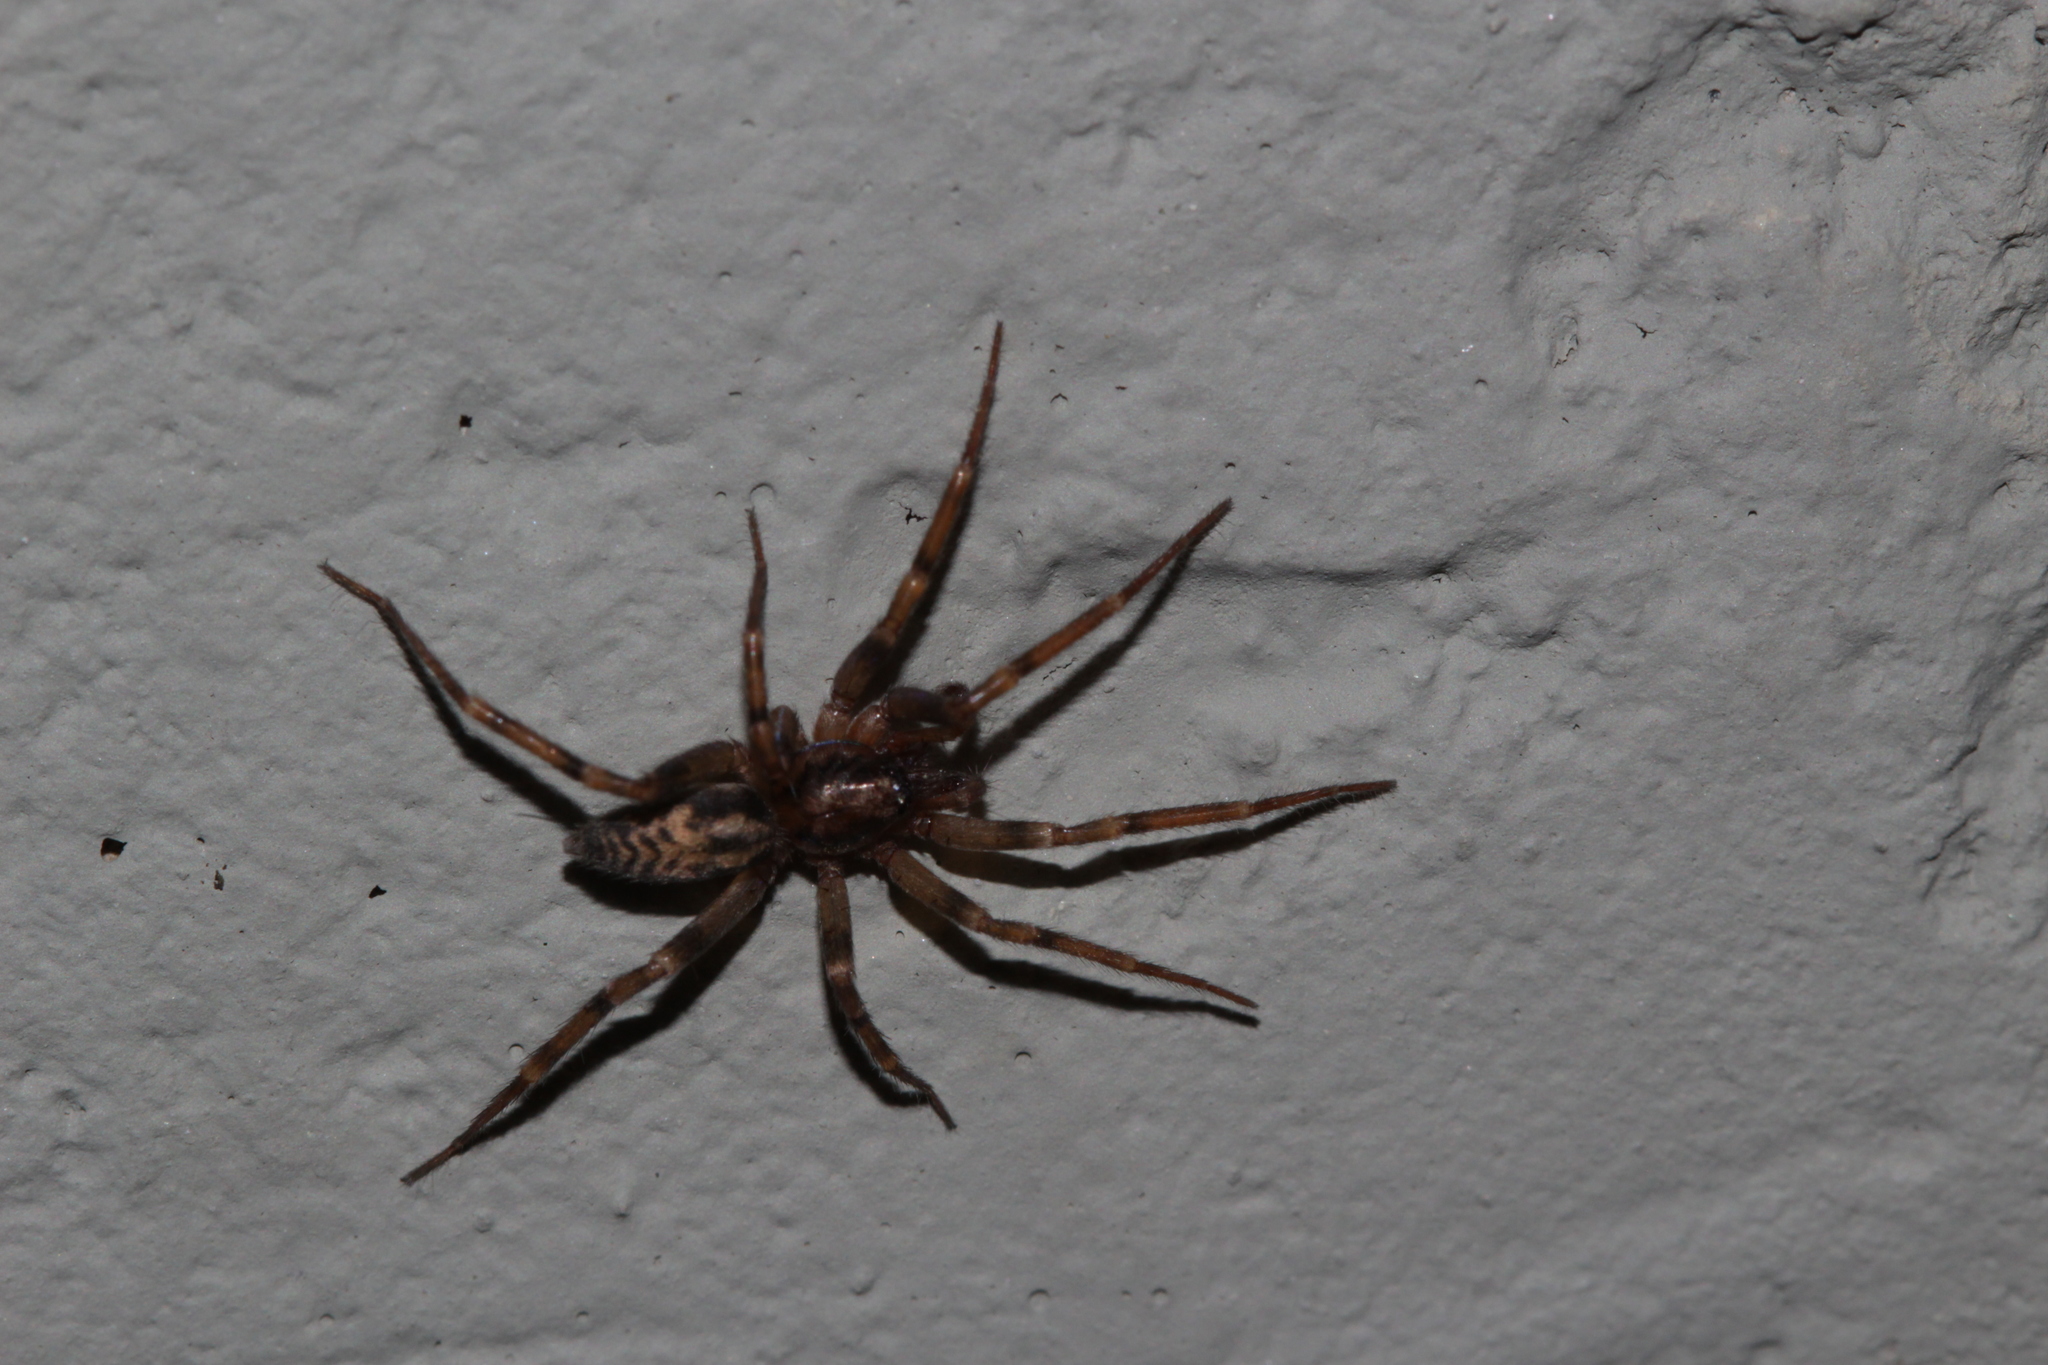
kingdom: Animalia
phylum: Arthropoda
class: Arachnida
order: Araneae
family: Liocranidae
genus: Liocranum
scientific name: Liocranum rupicola
